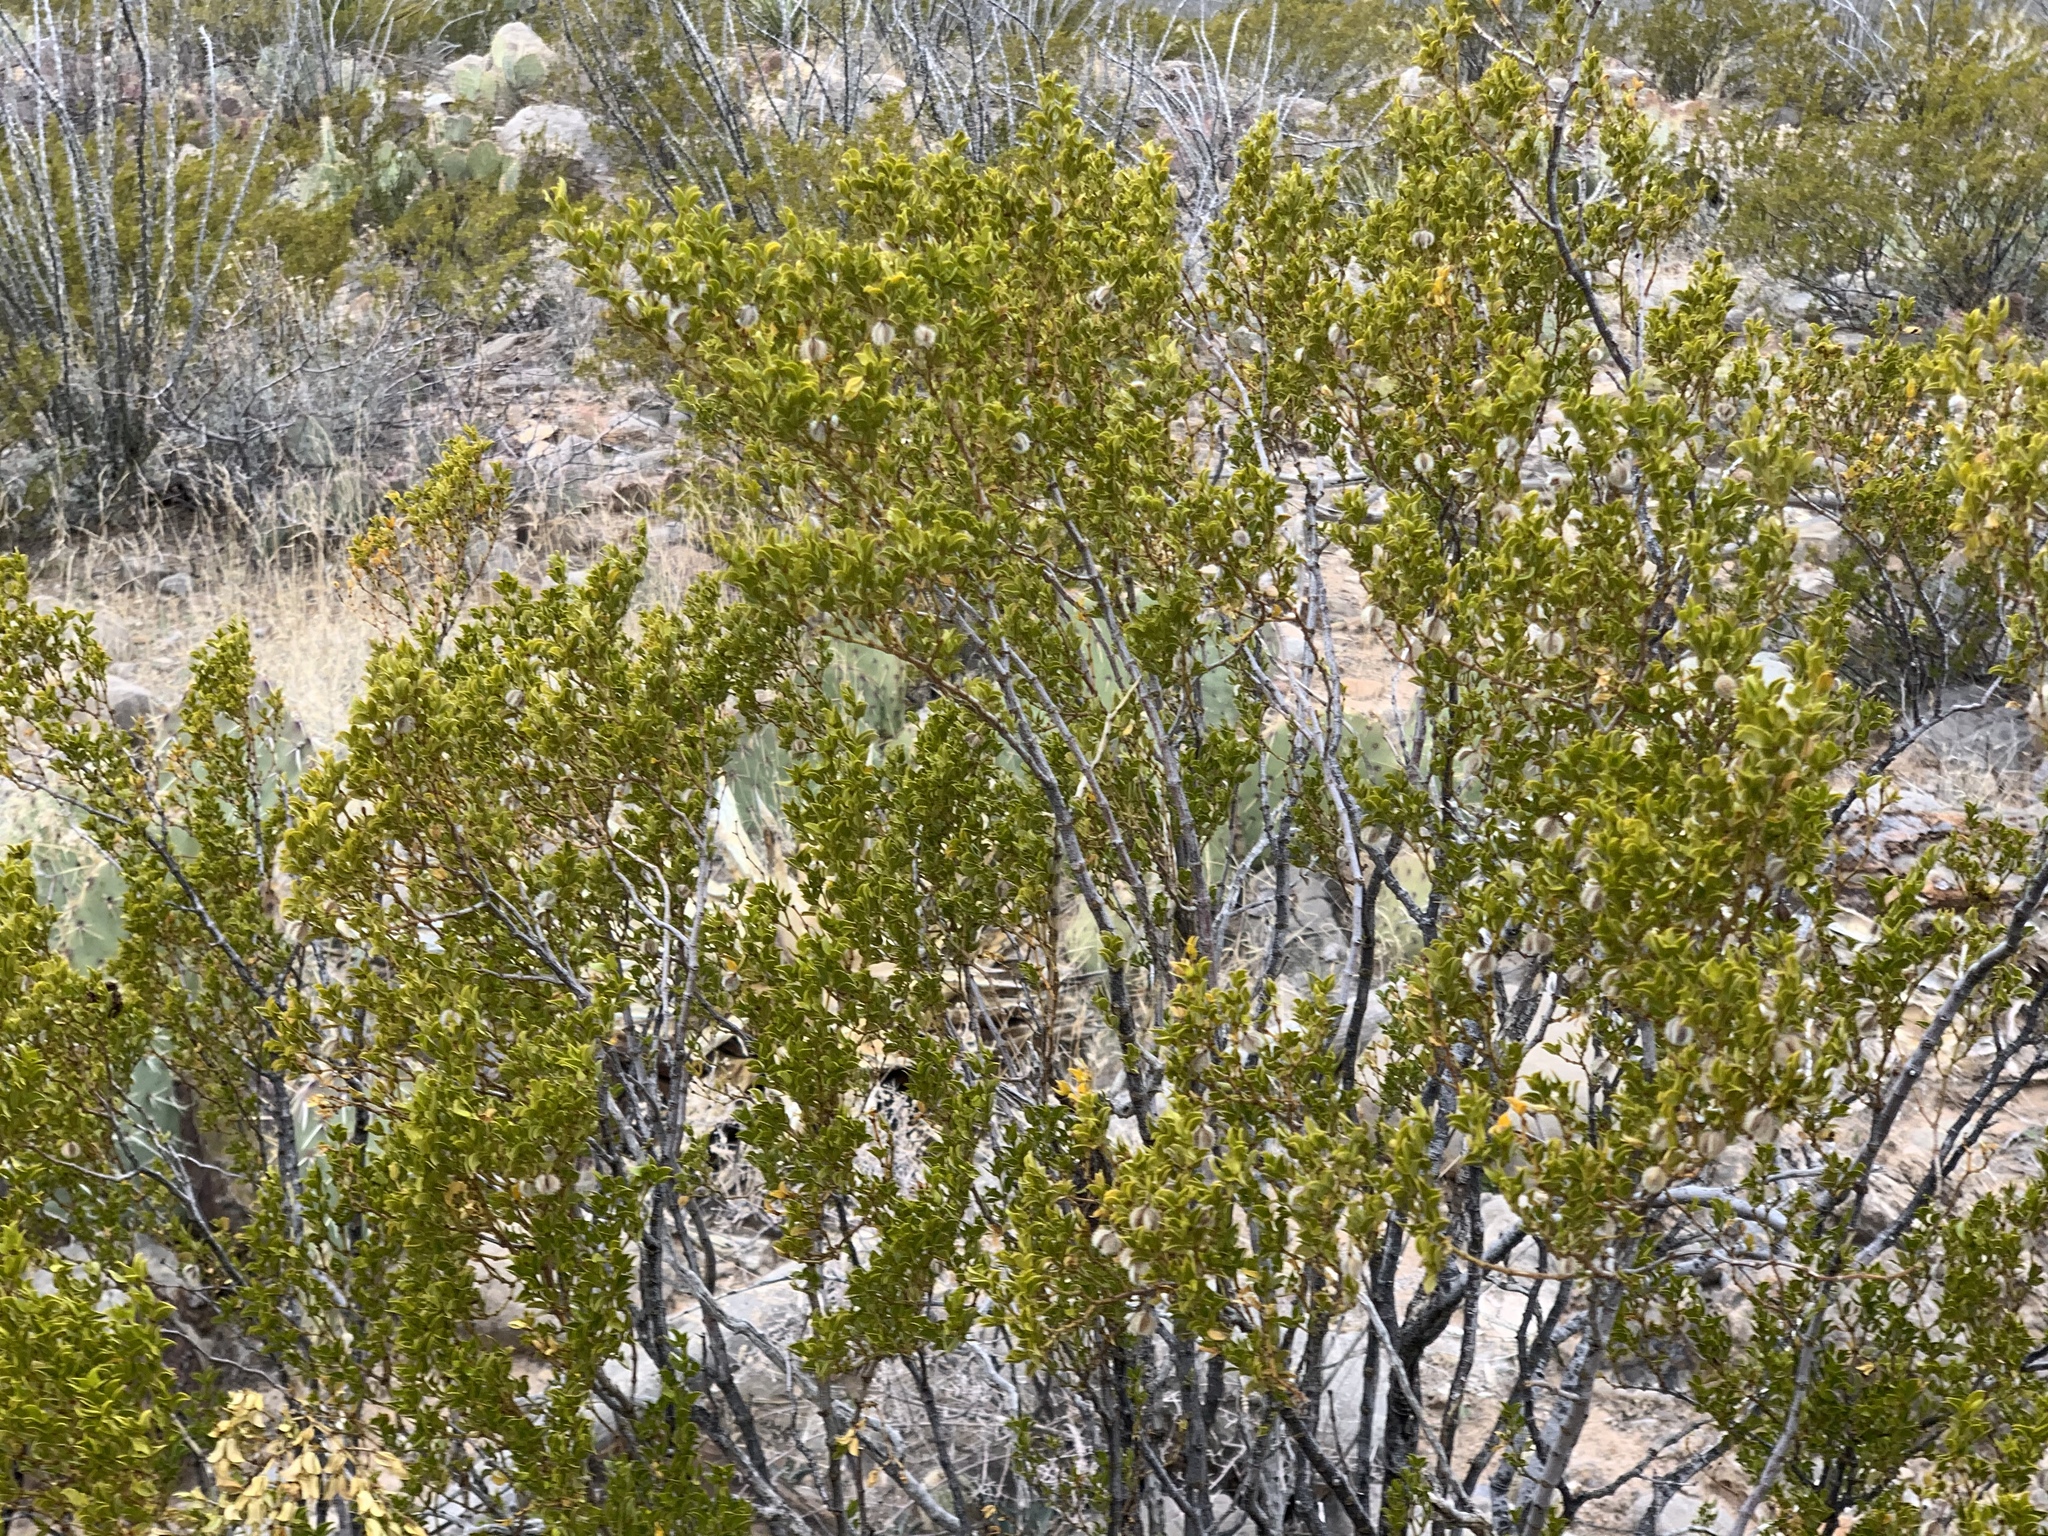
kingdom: Plantae
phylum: Tracheophyta
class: Magnoliopsida
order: Zygophyllales
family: Zygophyllaceae
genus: Larrea
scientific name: Larrea tridentata
